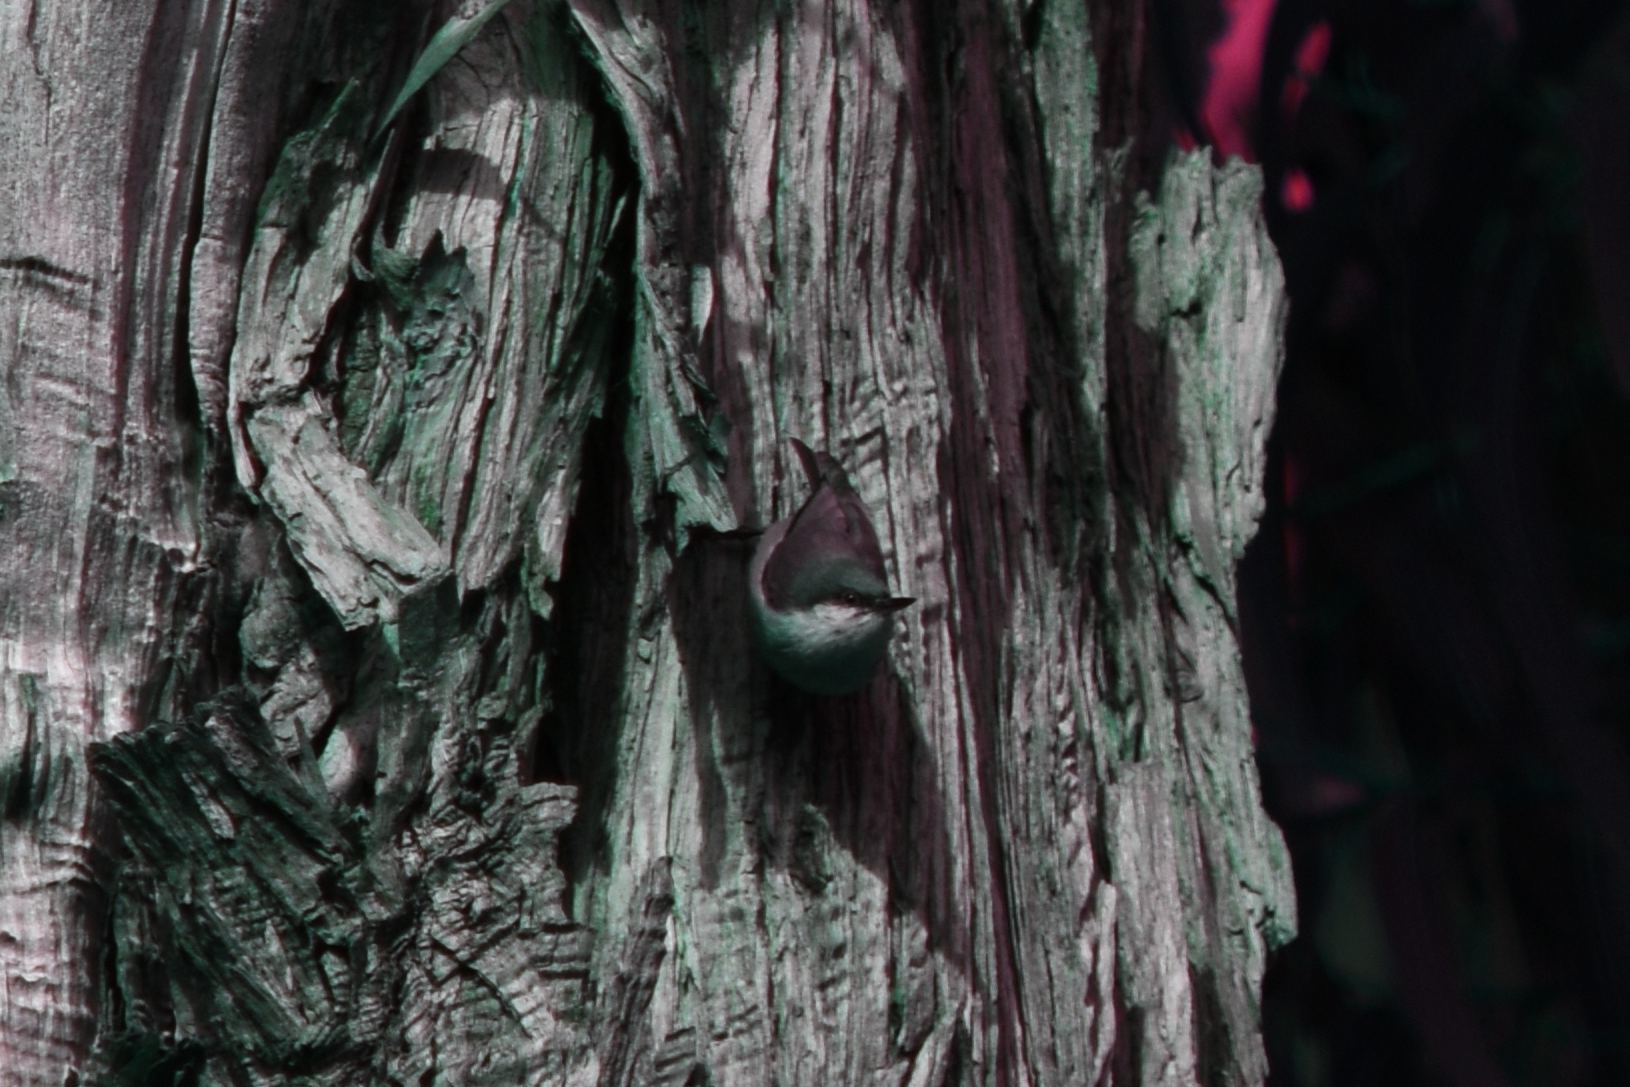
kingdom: Animalia
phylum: Chordata
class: Aves
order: Passeriformes
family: Sittidae
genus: Sitta
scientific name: Sitta pygmaea
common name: Pygmy nuthatch
